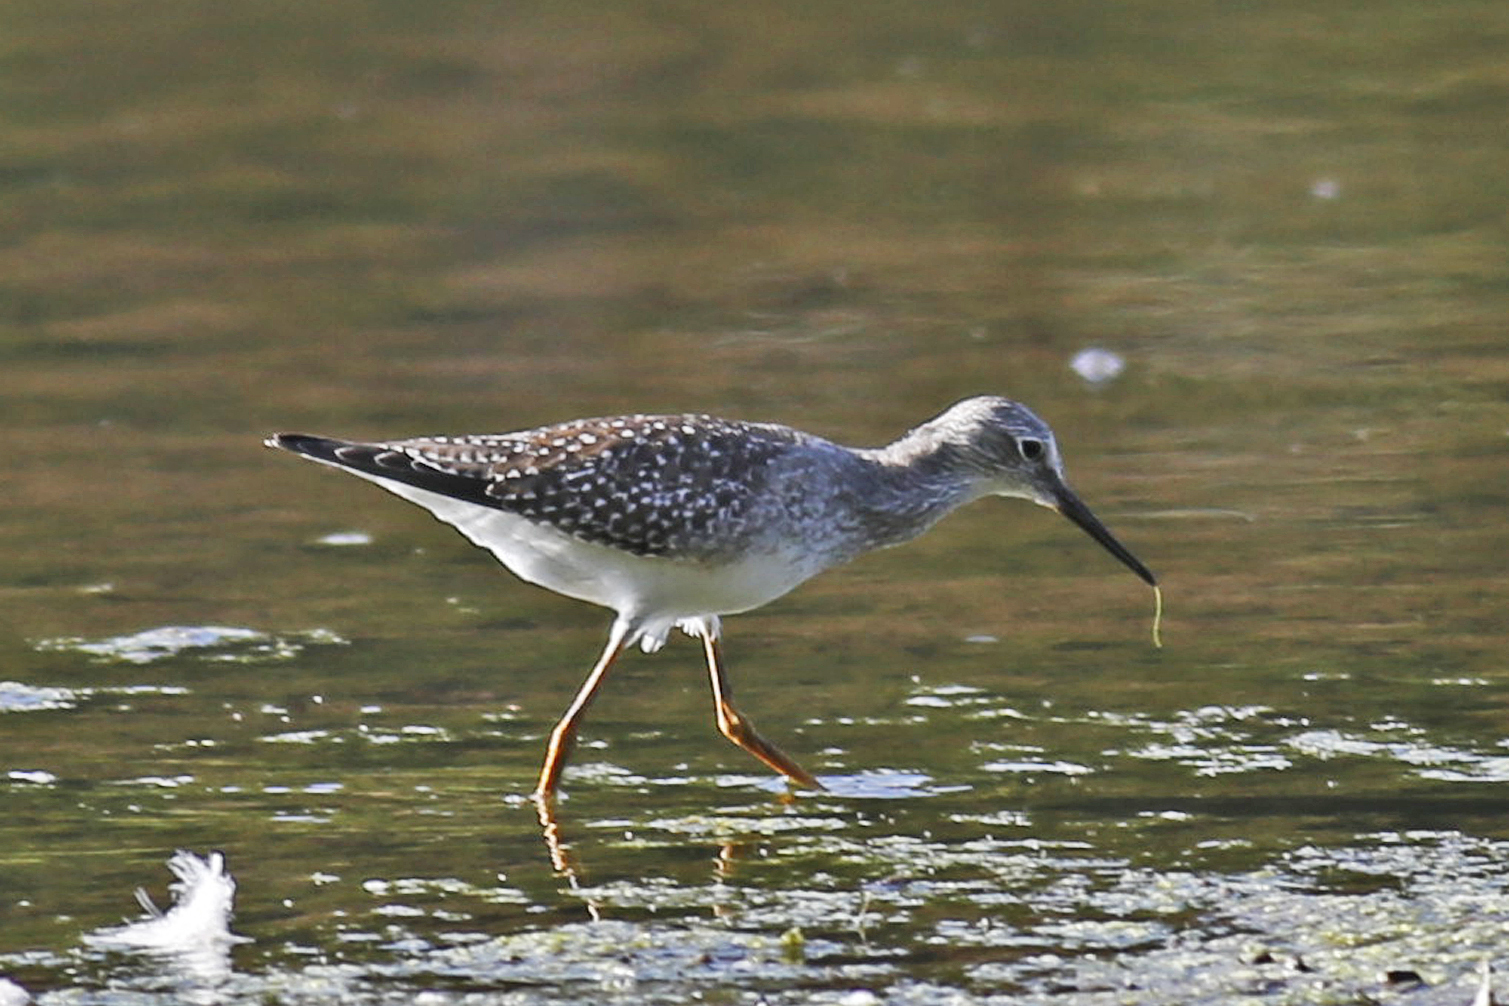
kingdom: Animalia
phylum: Chordata
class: Aves
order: Charadriiformes
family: Scolopacidae
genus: Tringa
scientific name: Tringa flavipes
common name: Lesser yellowlegs
